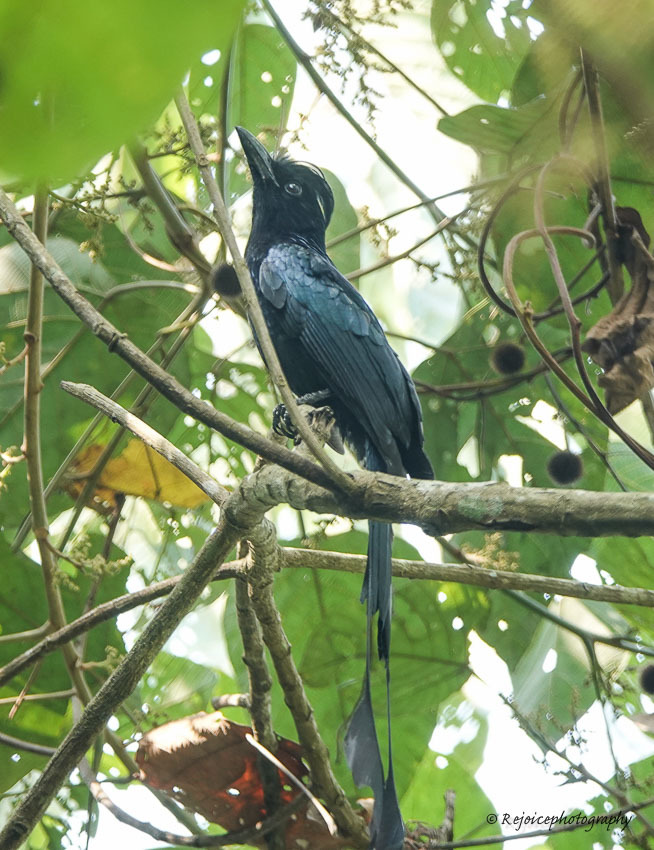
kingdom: Animalia
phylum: Chordata
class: Aves
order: Passeriformes
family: Dicruridae
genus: Dicrurus
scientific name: Dicrurus paradiseus
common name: Greater racket-tailed drongo
